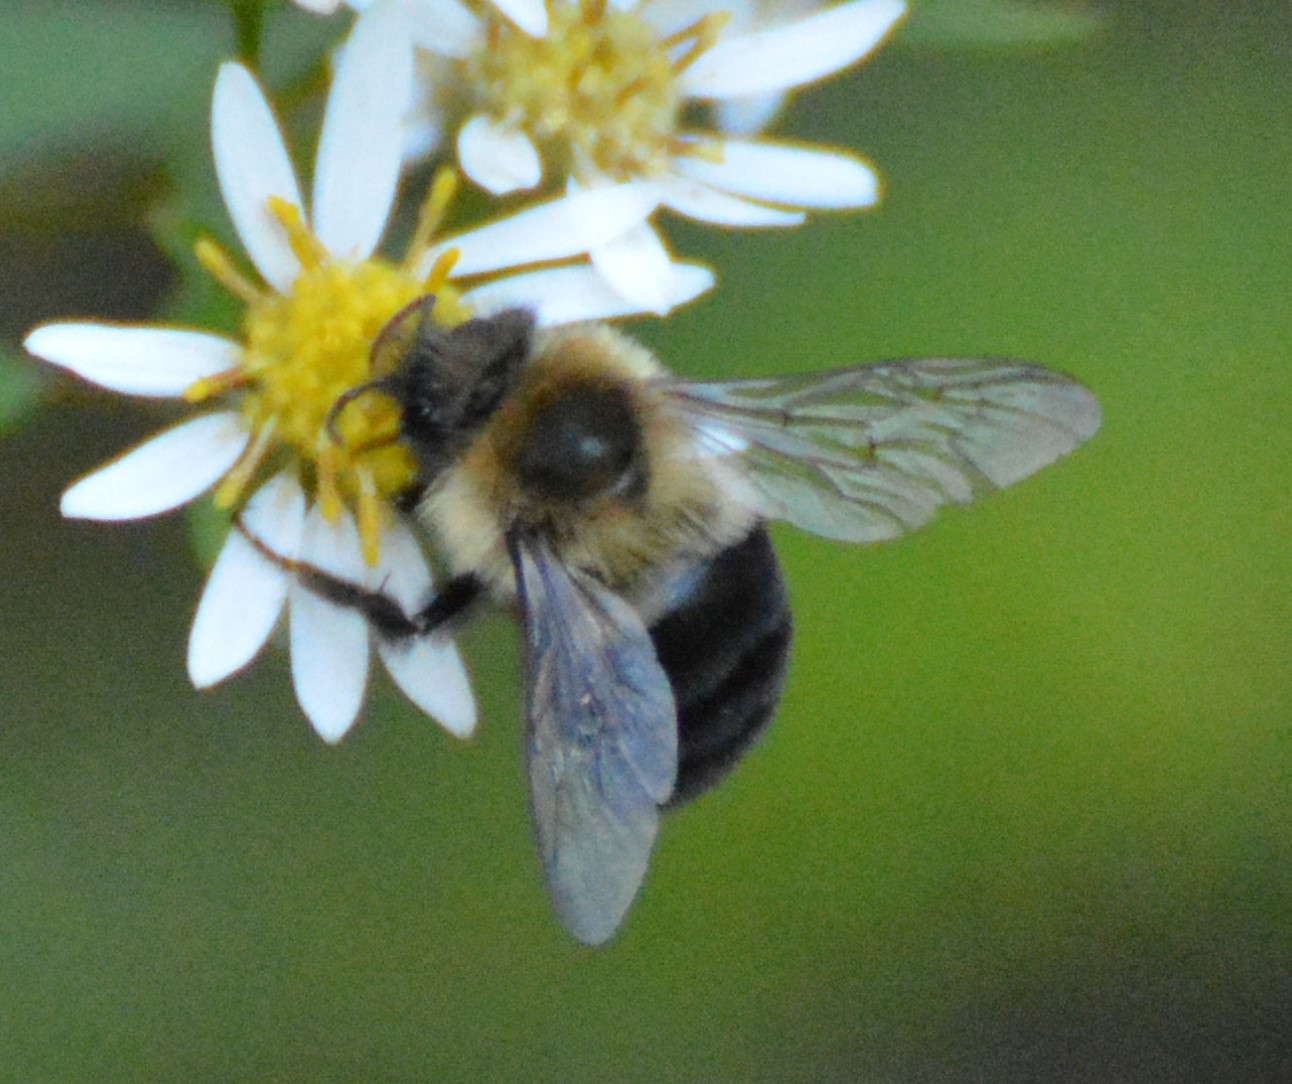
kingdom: Animalia
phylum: Arthropoda
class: Insecta
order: Hymenoptera
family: Apidae
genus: Bombus
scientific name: Bombus impatiens
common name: Common eastern bumble bee
